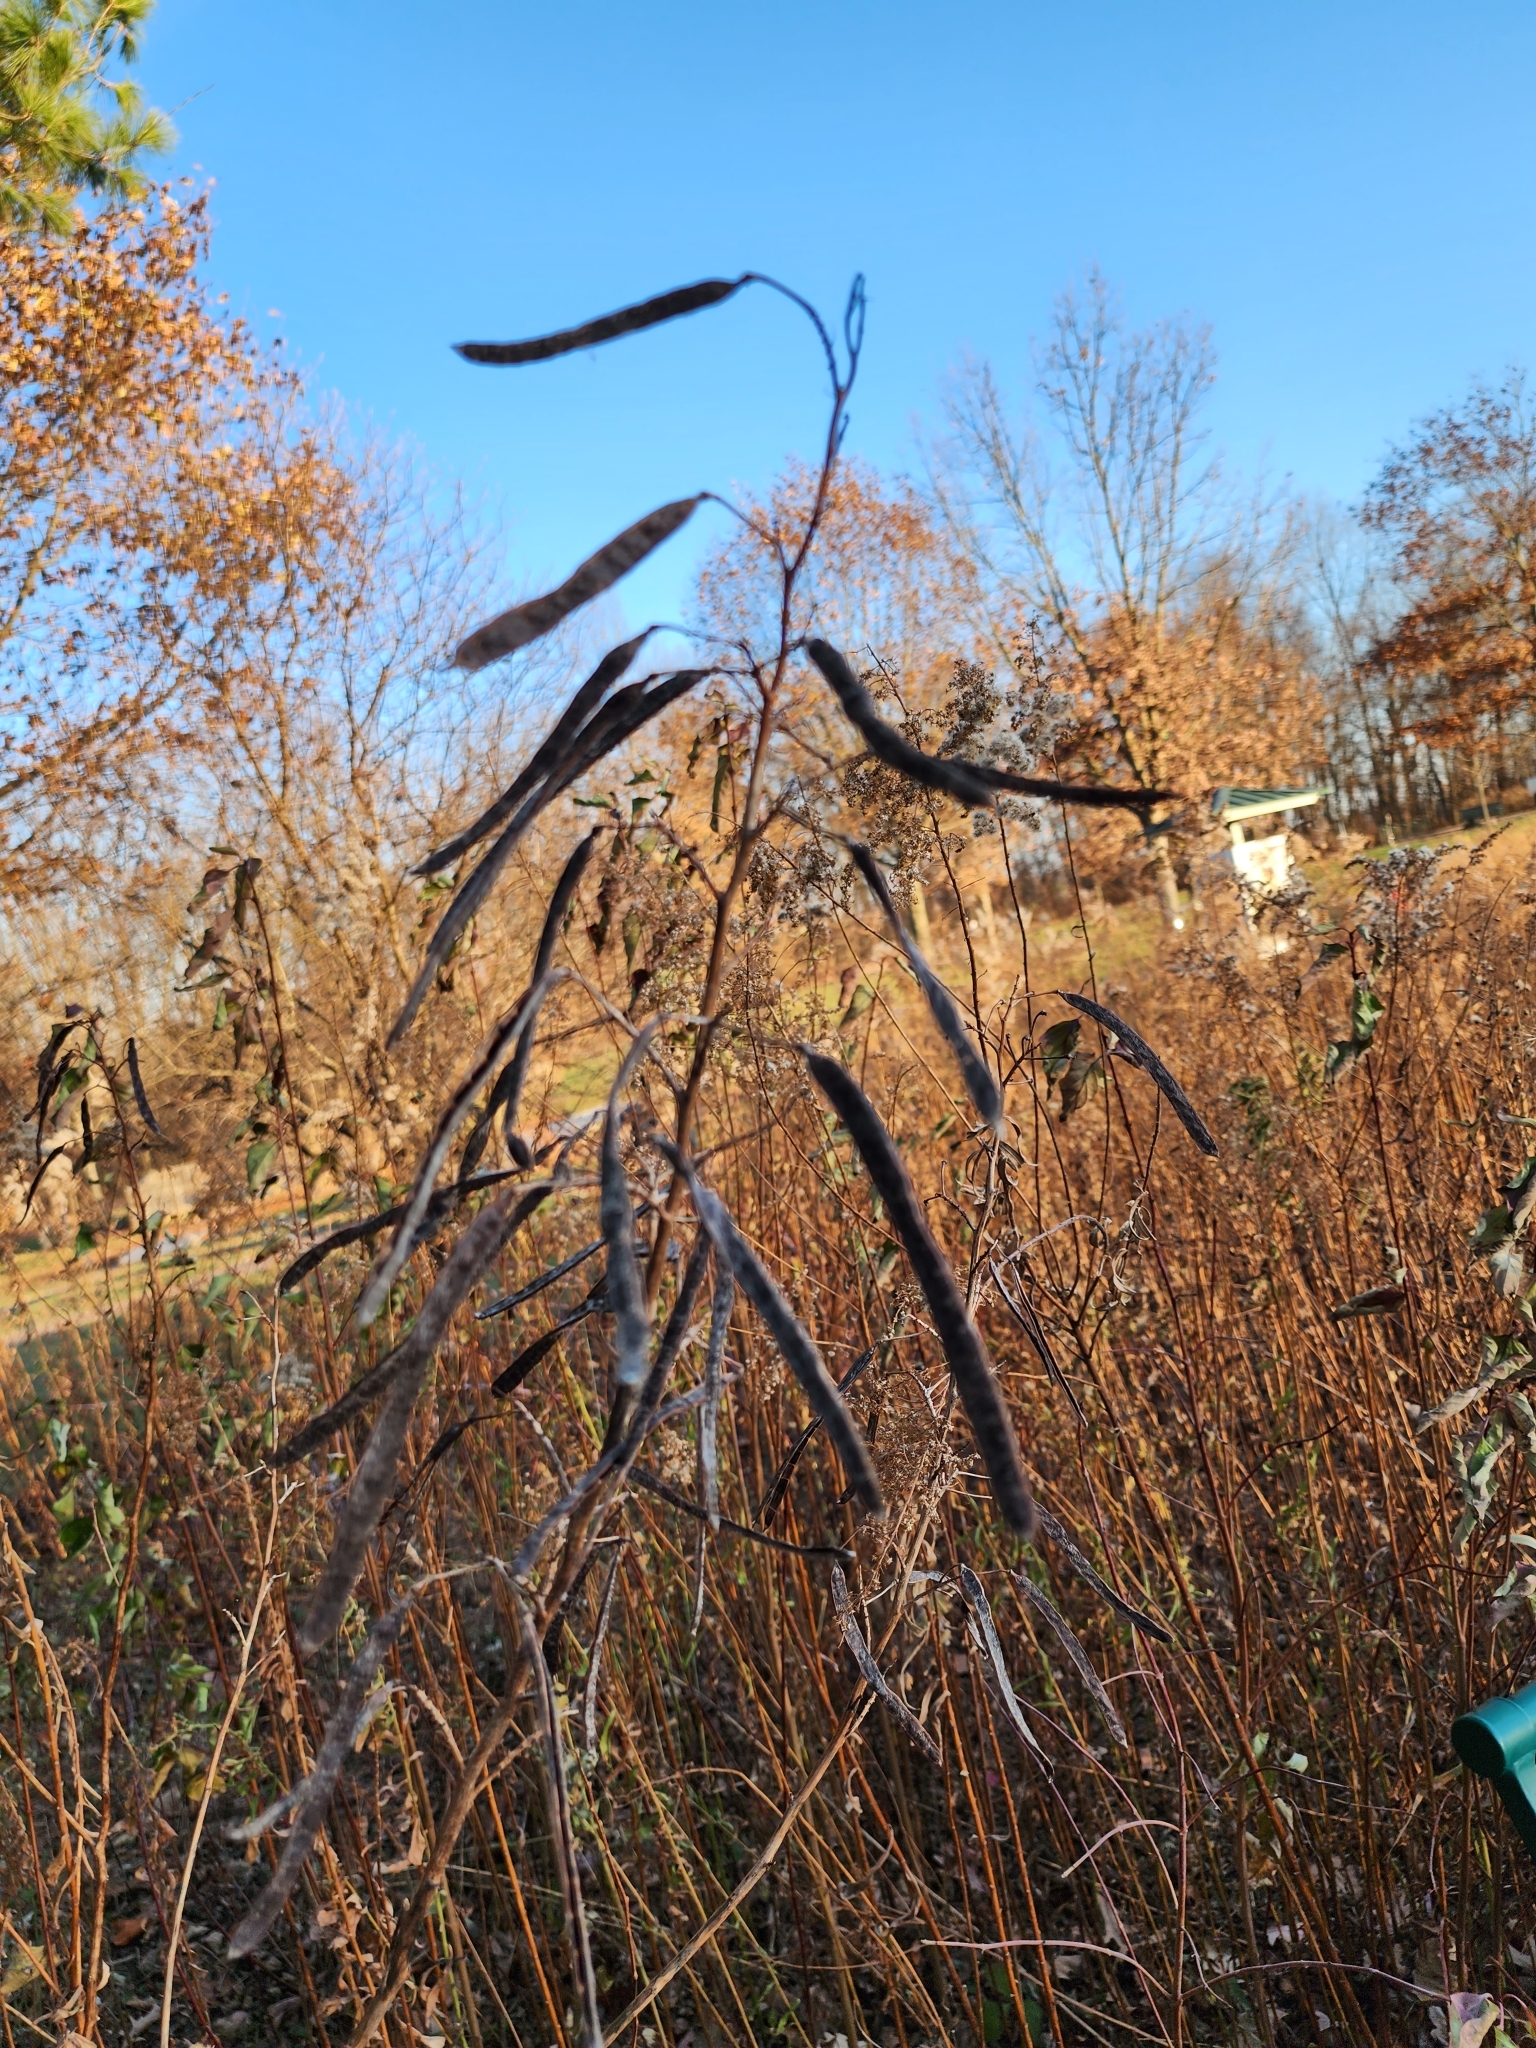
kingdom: Plantae
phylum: Tracheophyta
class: Magnoliopsida
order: Fabales
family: Fabaceae
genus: Senna
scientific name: Senna hebecarpa
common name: Wild senna
